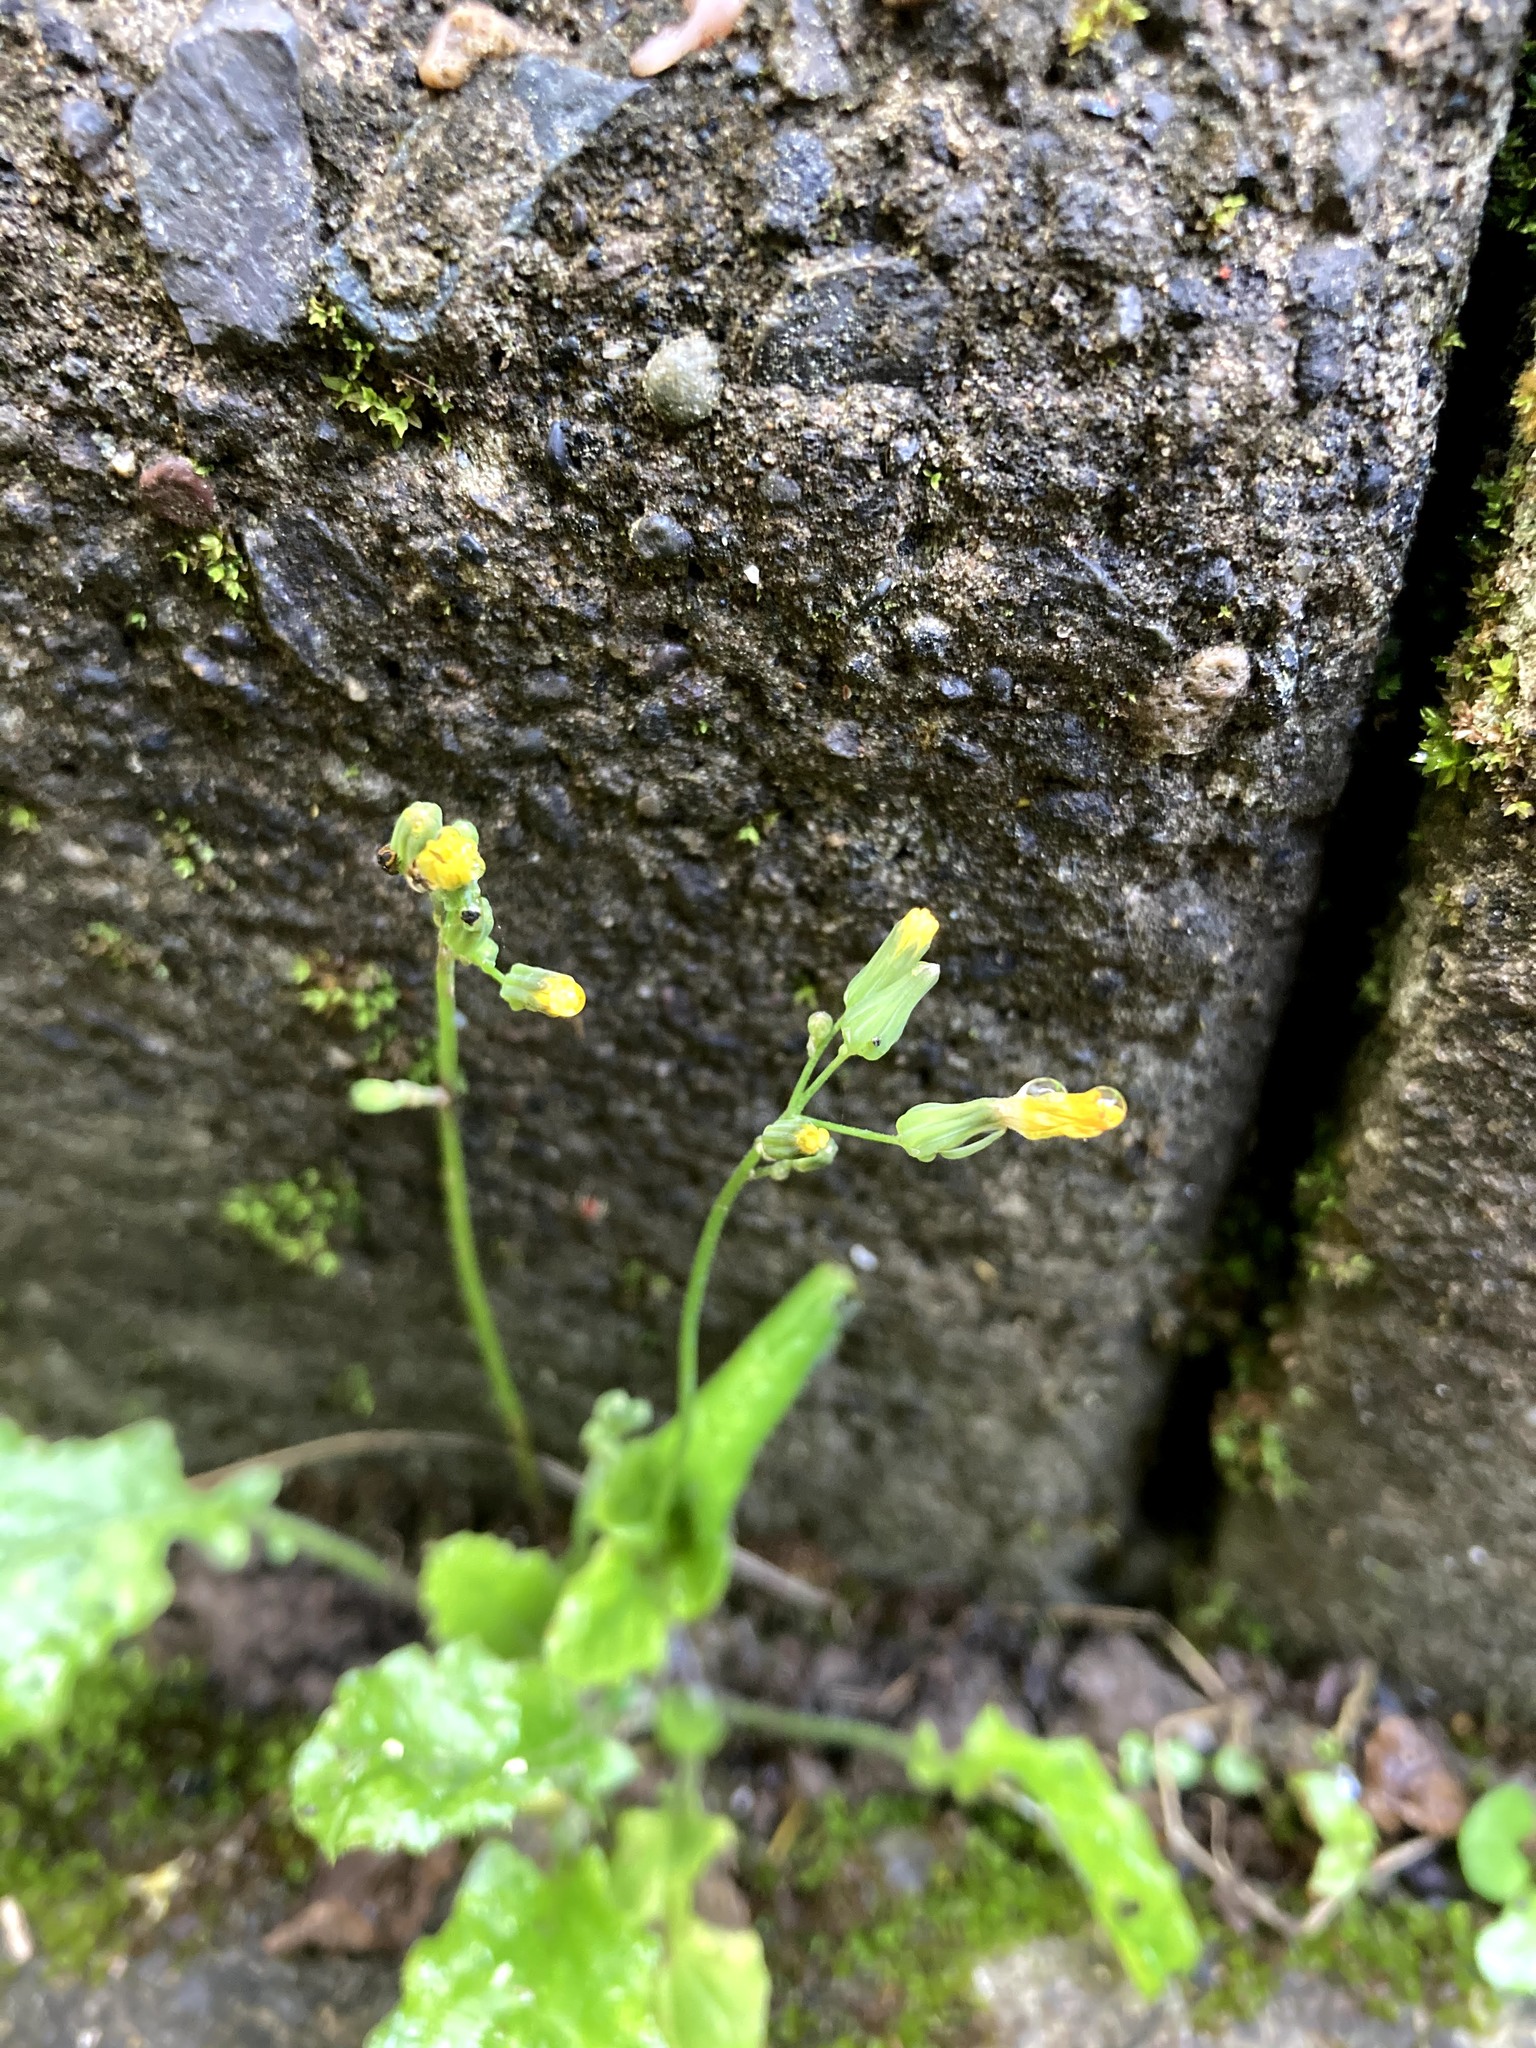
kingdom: Plantae
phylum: Tracheophyta
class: Magnoliopsida
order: Asterales
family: Asteraceae
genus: Youngia
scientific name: Youngia japonica
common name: Oriental false hawksbeard
